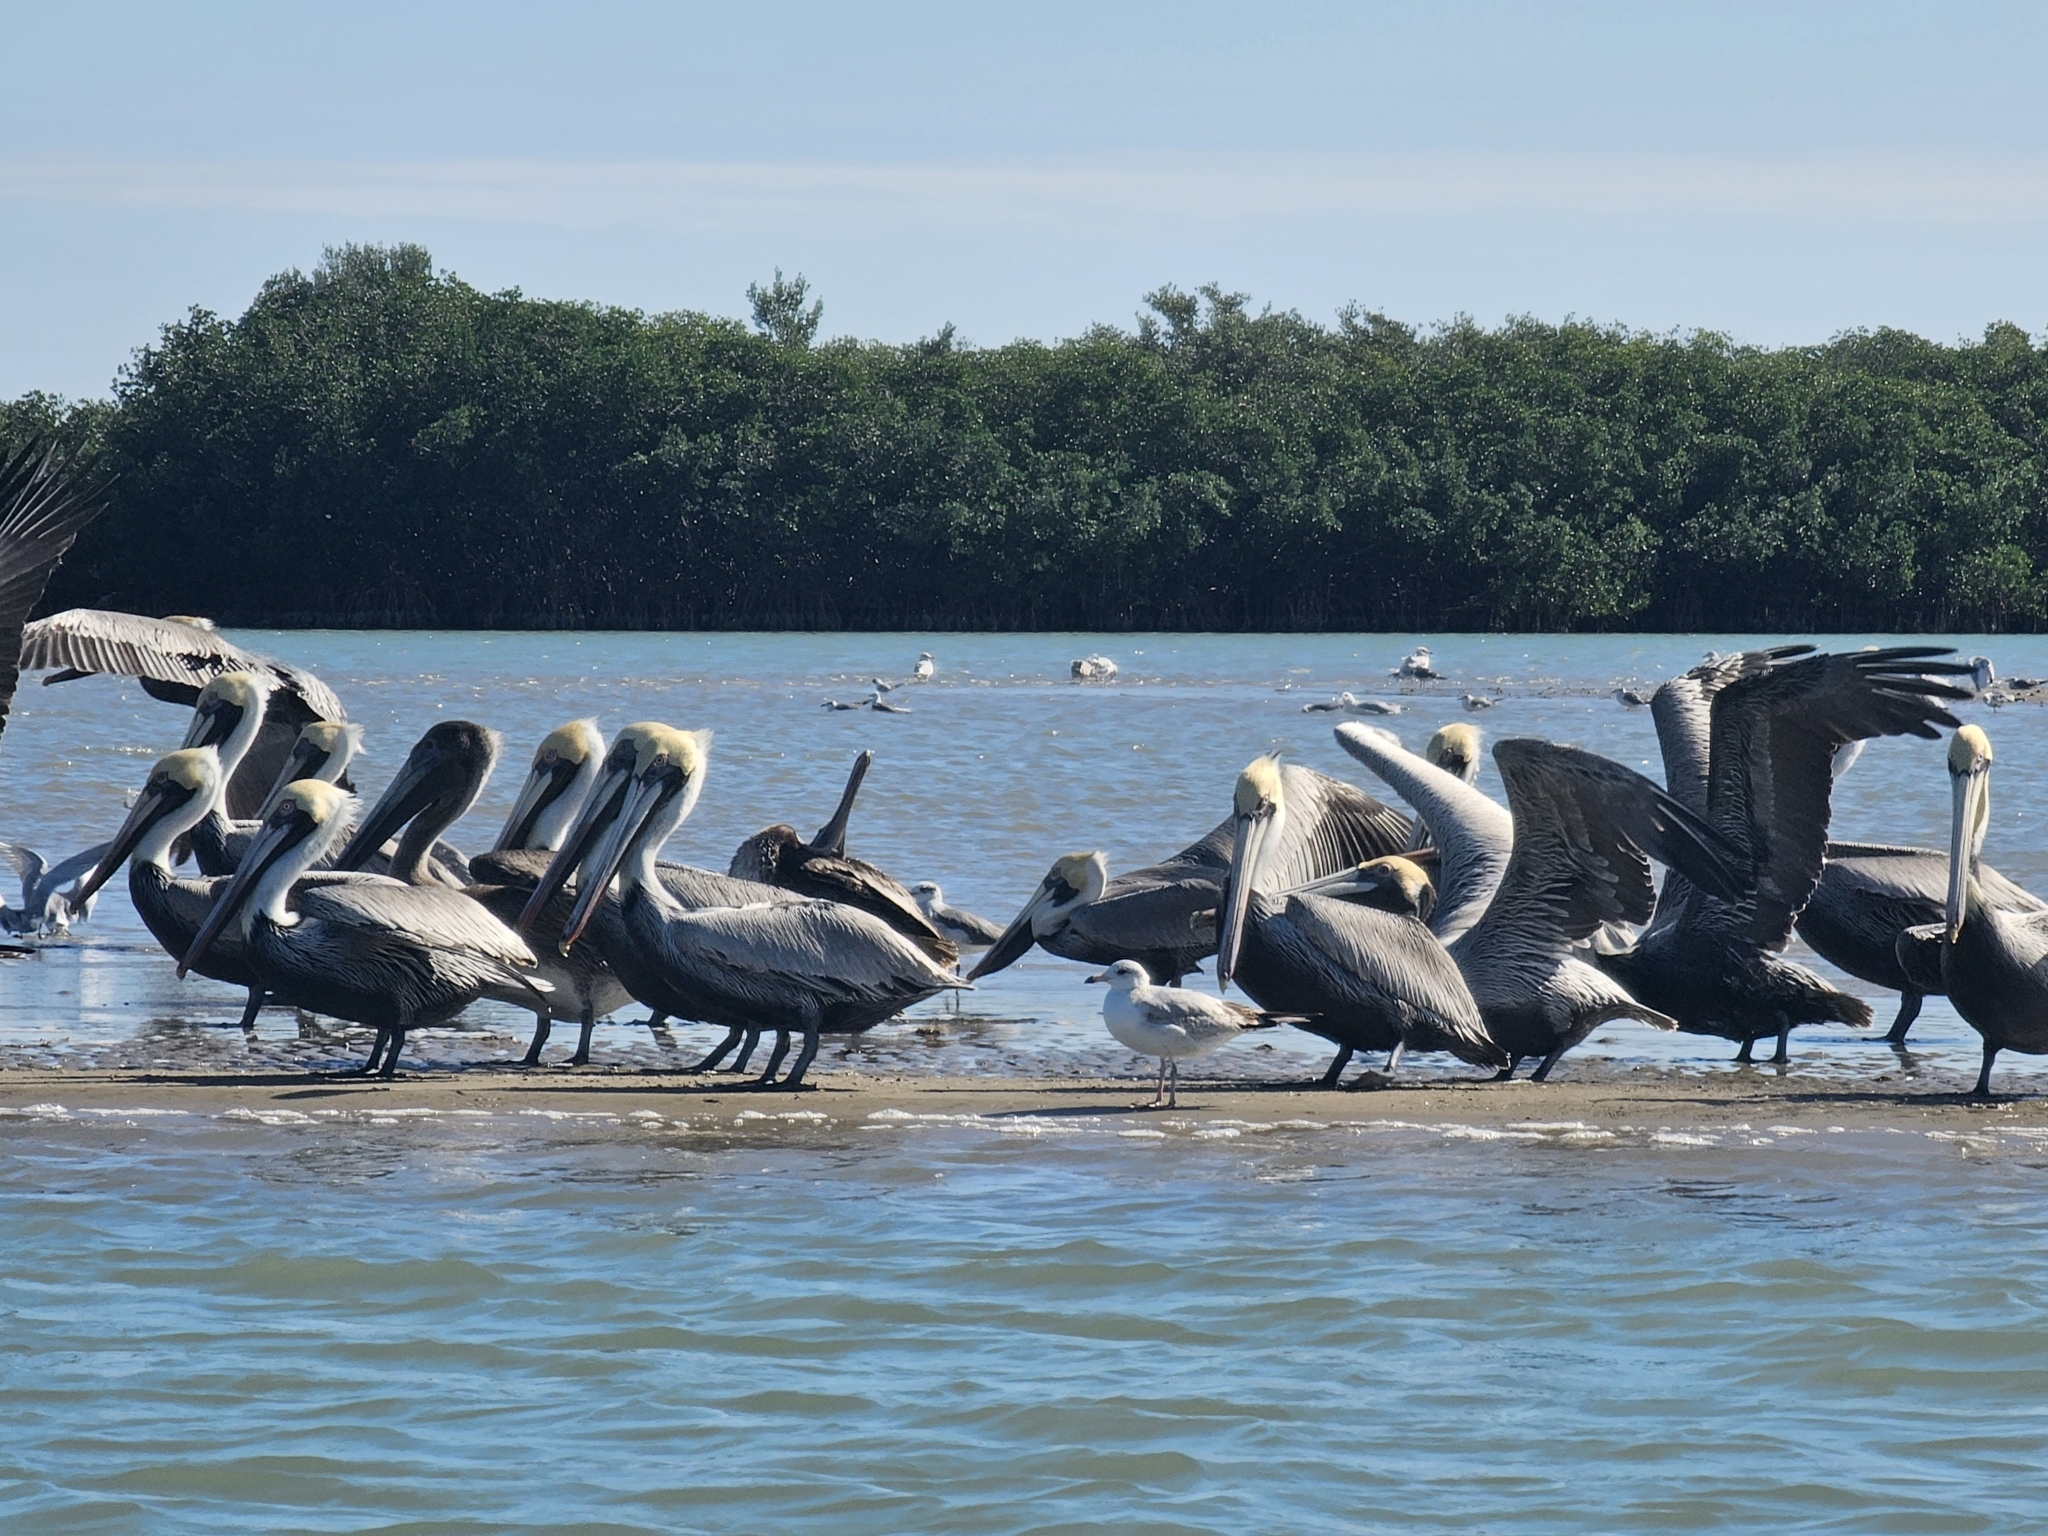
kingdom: Animalia
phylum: Chordata
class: Aves
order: Pelecaniformes
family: Pelecanidae
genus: Pelecanus
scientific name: Pelecanus occidentalis
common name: Brown pelican
